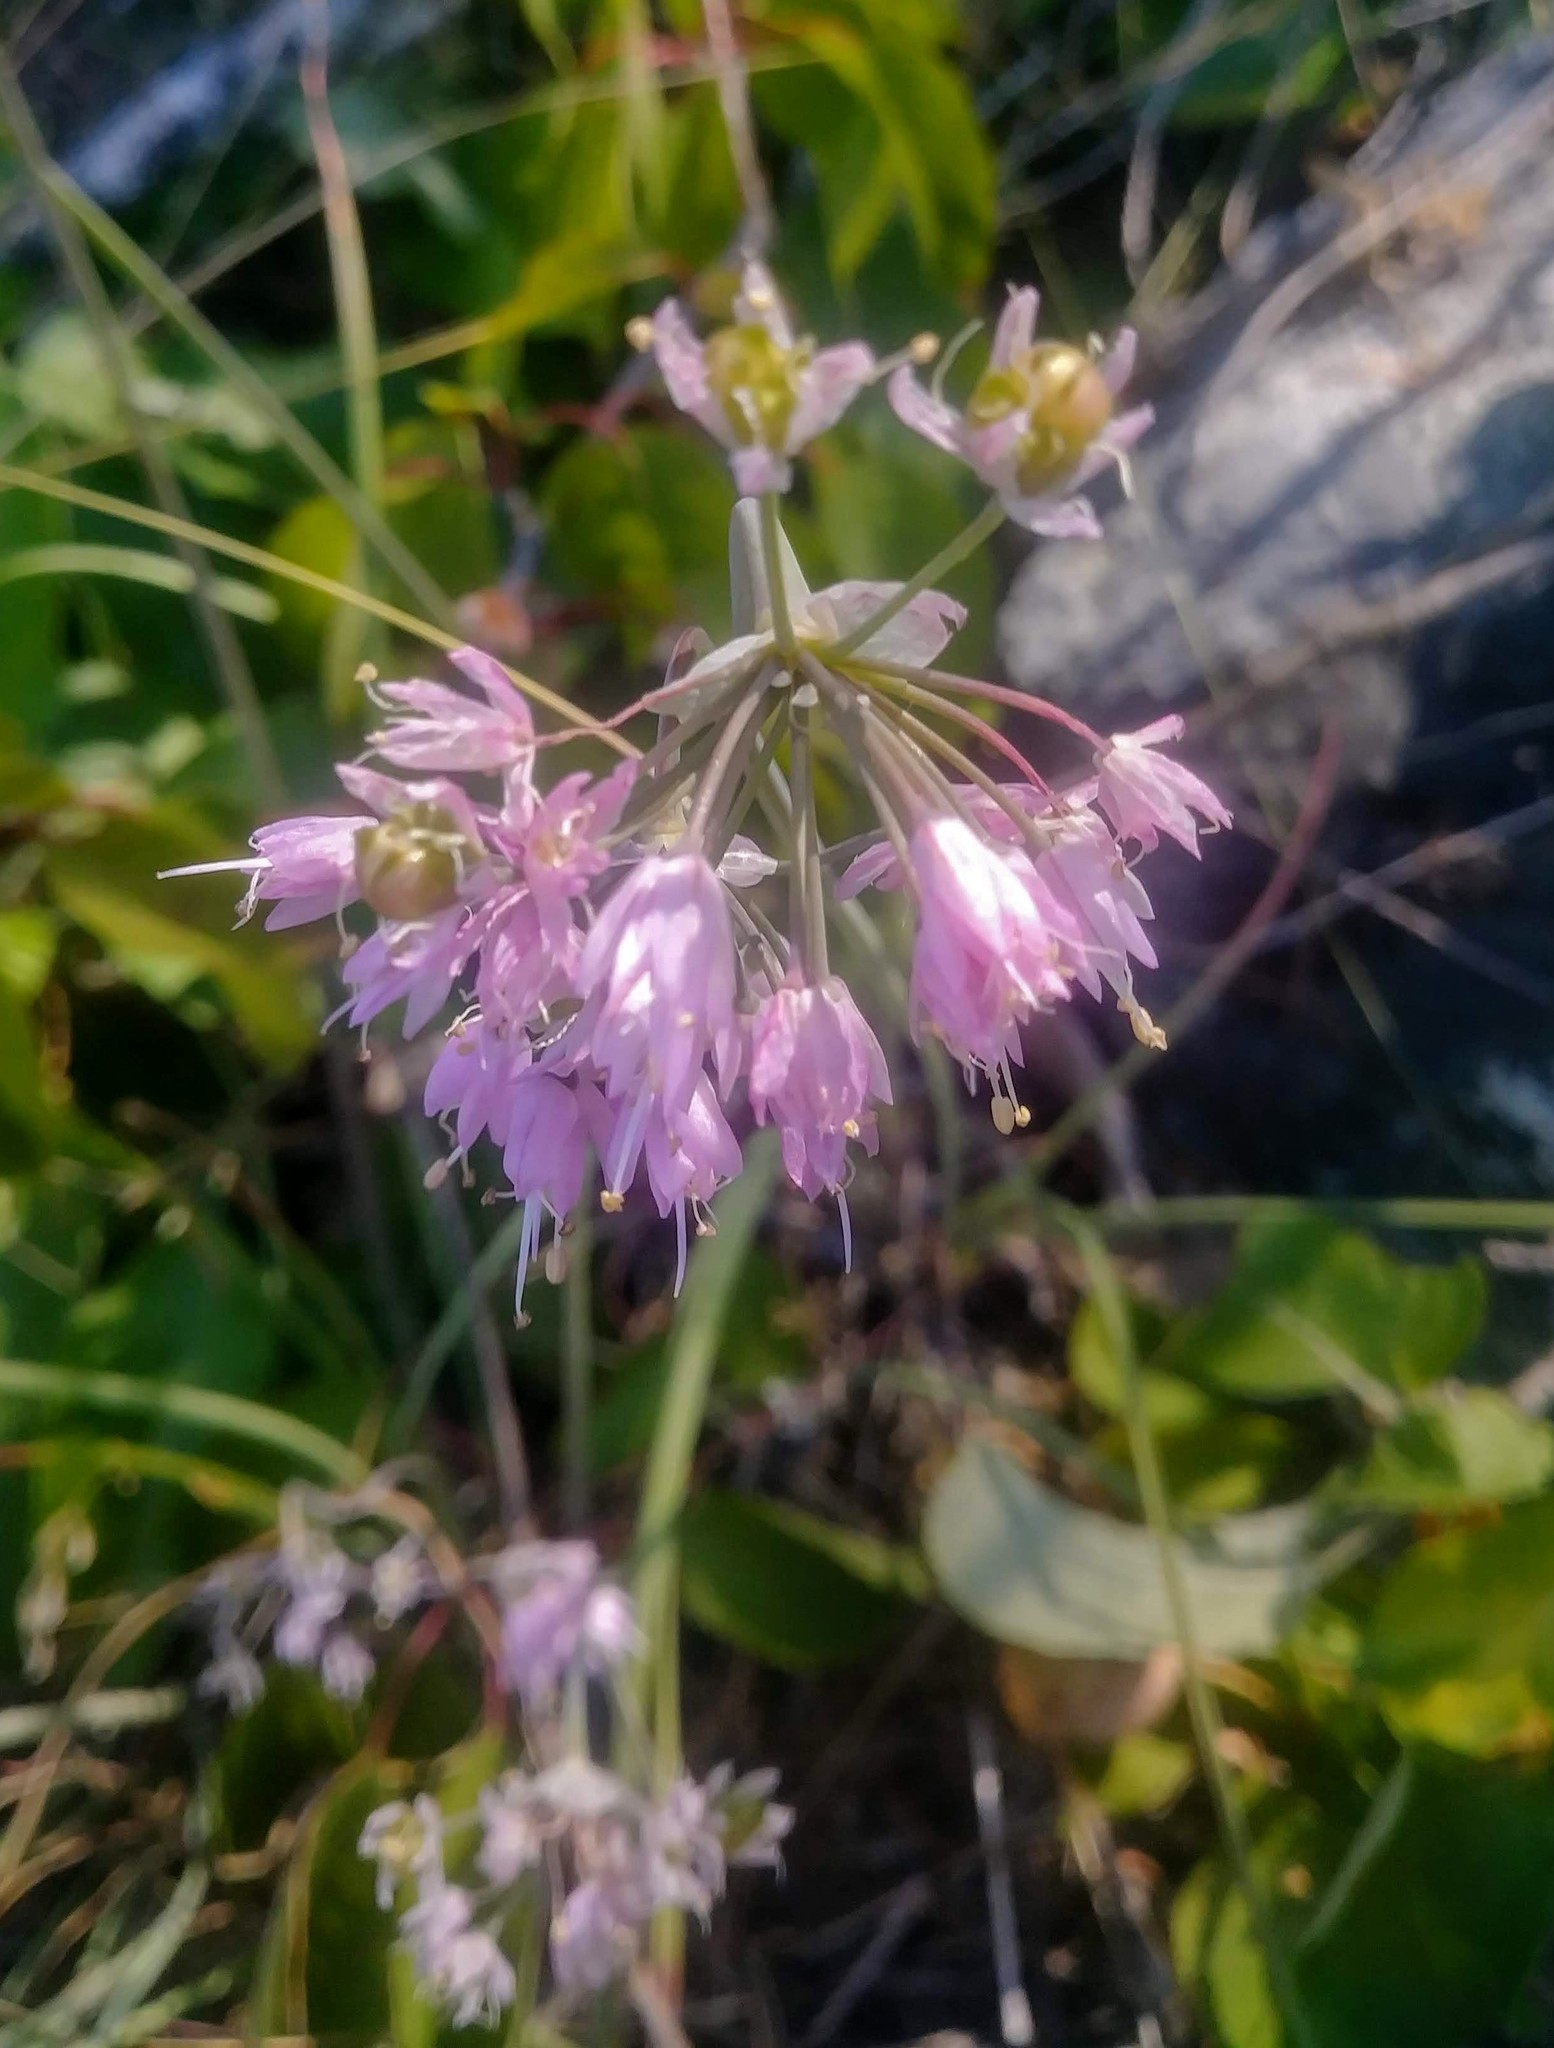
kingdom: Plantae
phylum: Tracheophyta
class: Liliopsida
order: Asparagales
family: Amaryllidaceae
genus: Allium
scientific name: Allium cernuum
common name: Nodding onion
